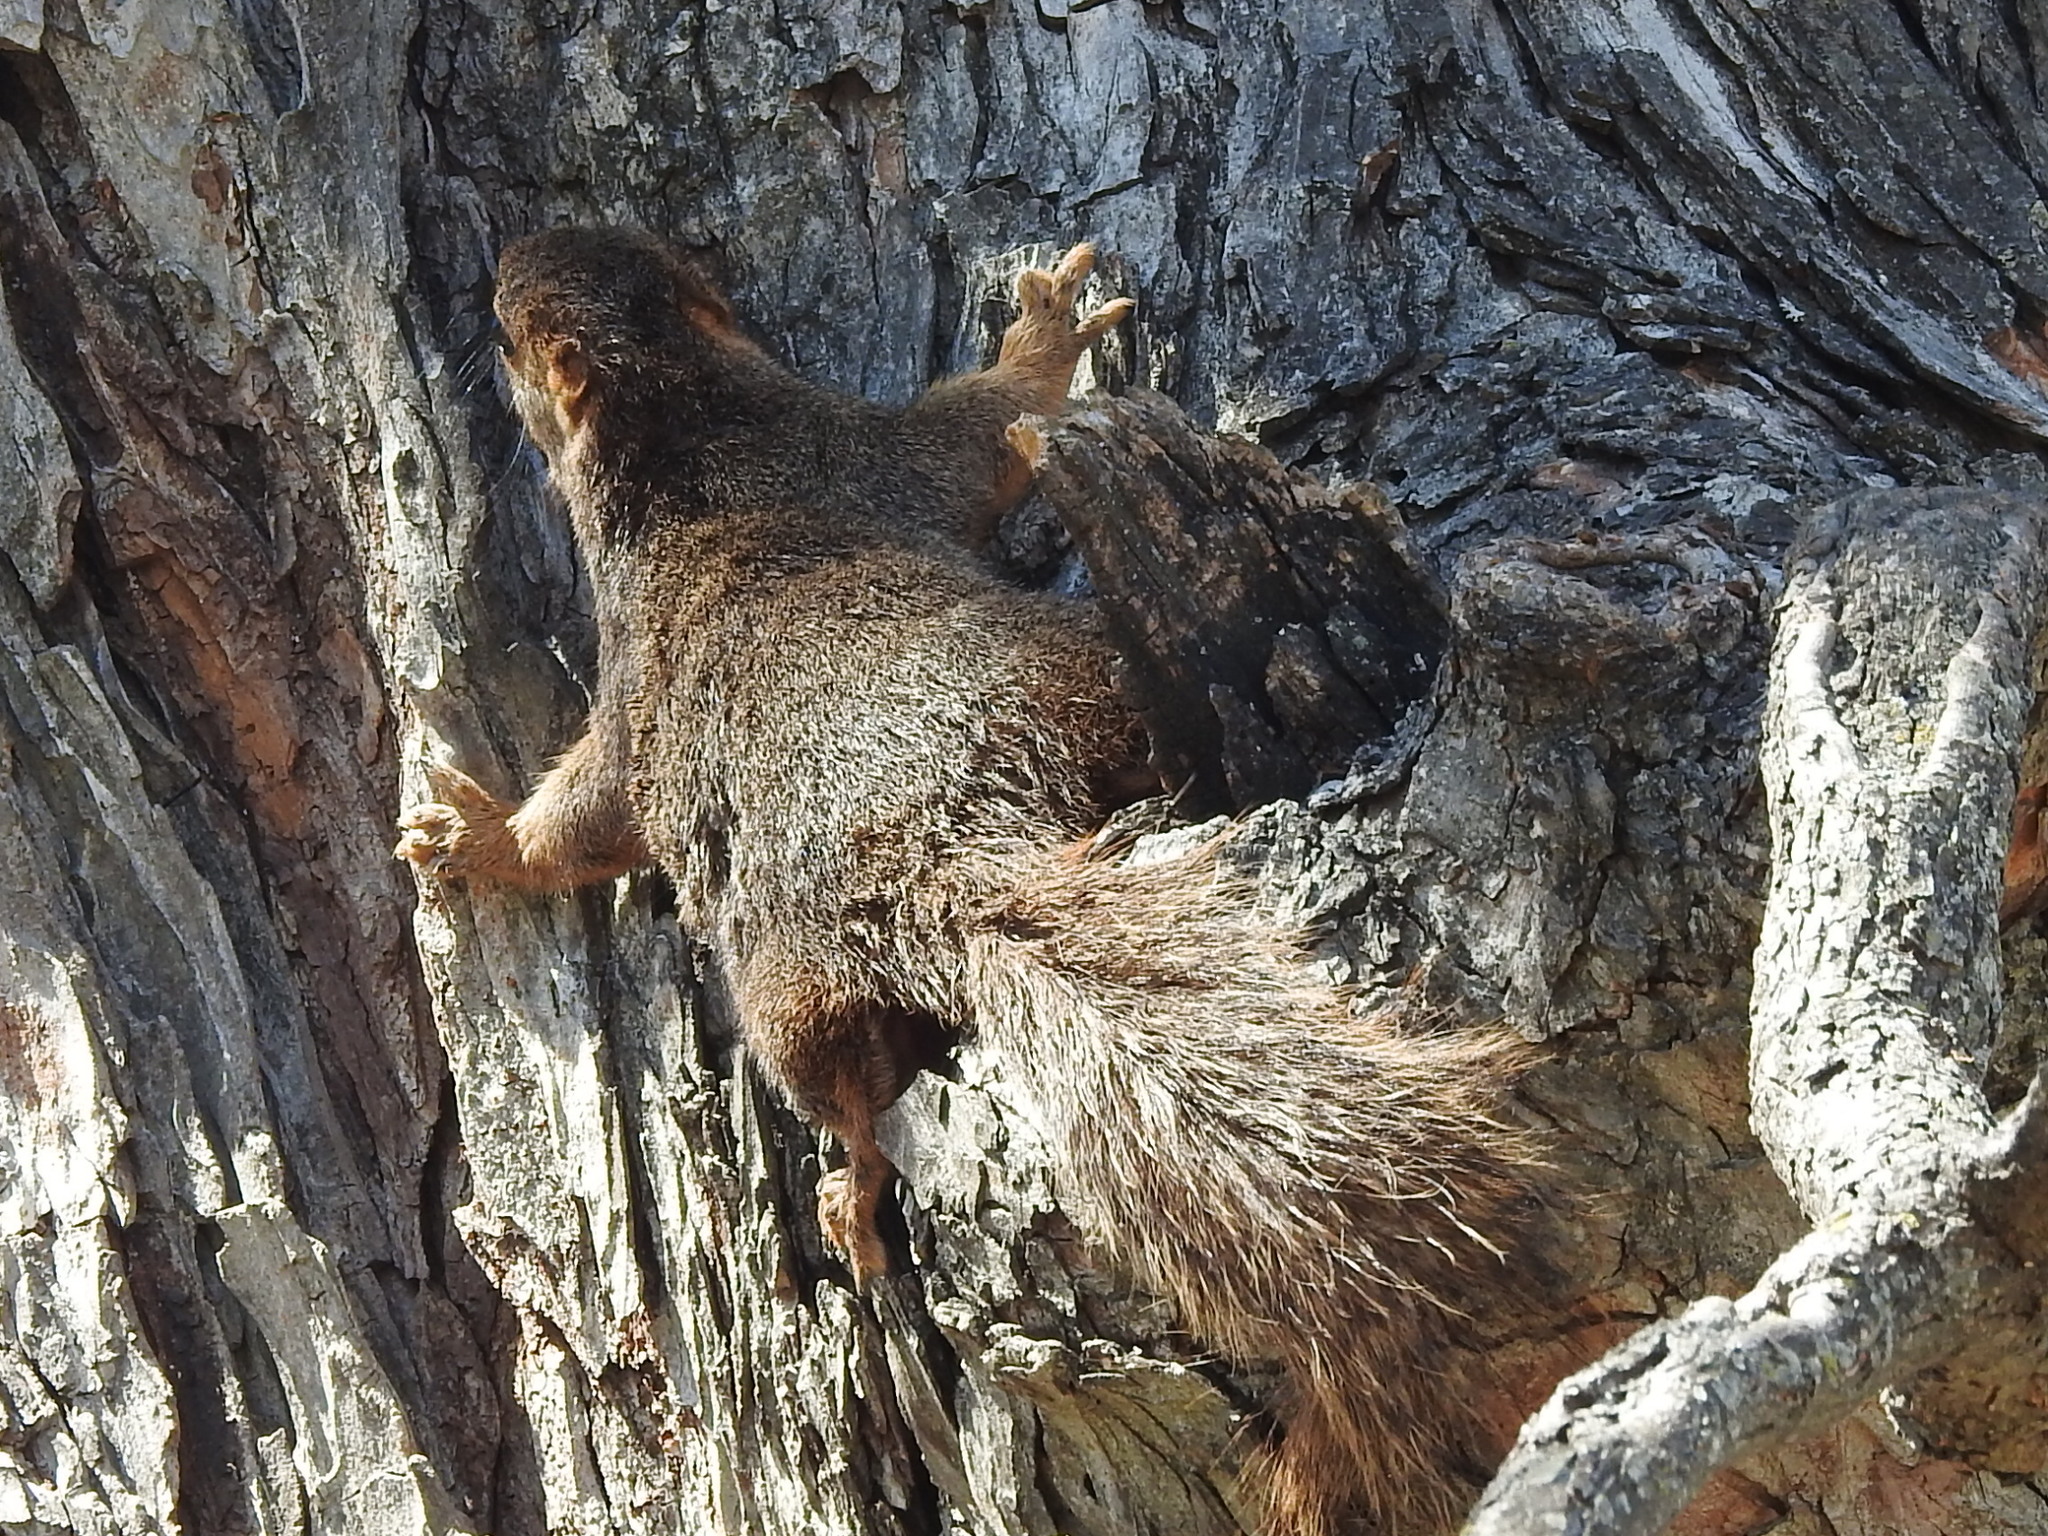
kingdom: Animalia
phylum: Chordata
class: Mammalia
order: Rodentia
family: Sciuridae
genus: Sciurus
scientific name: Sciurus niger
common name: Fox squirrel
